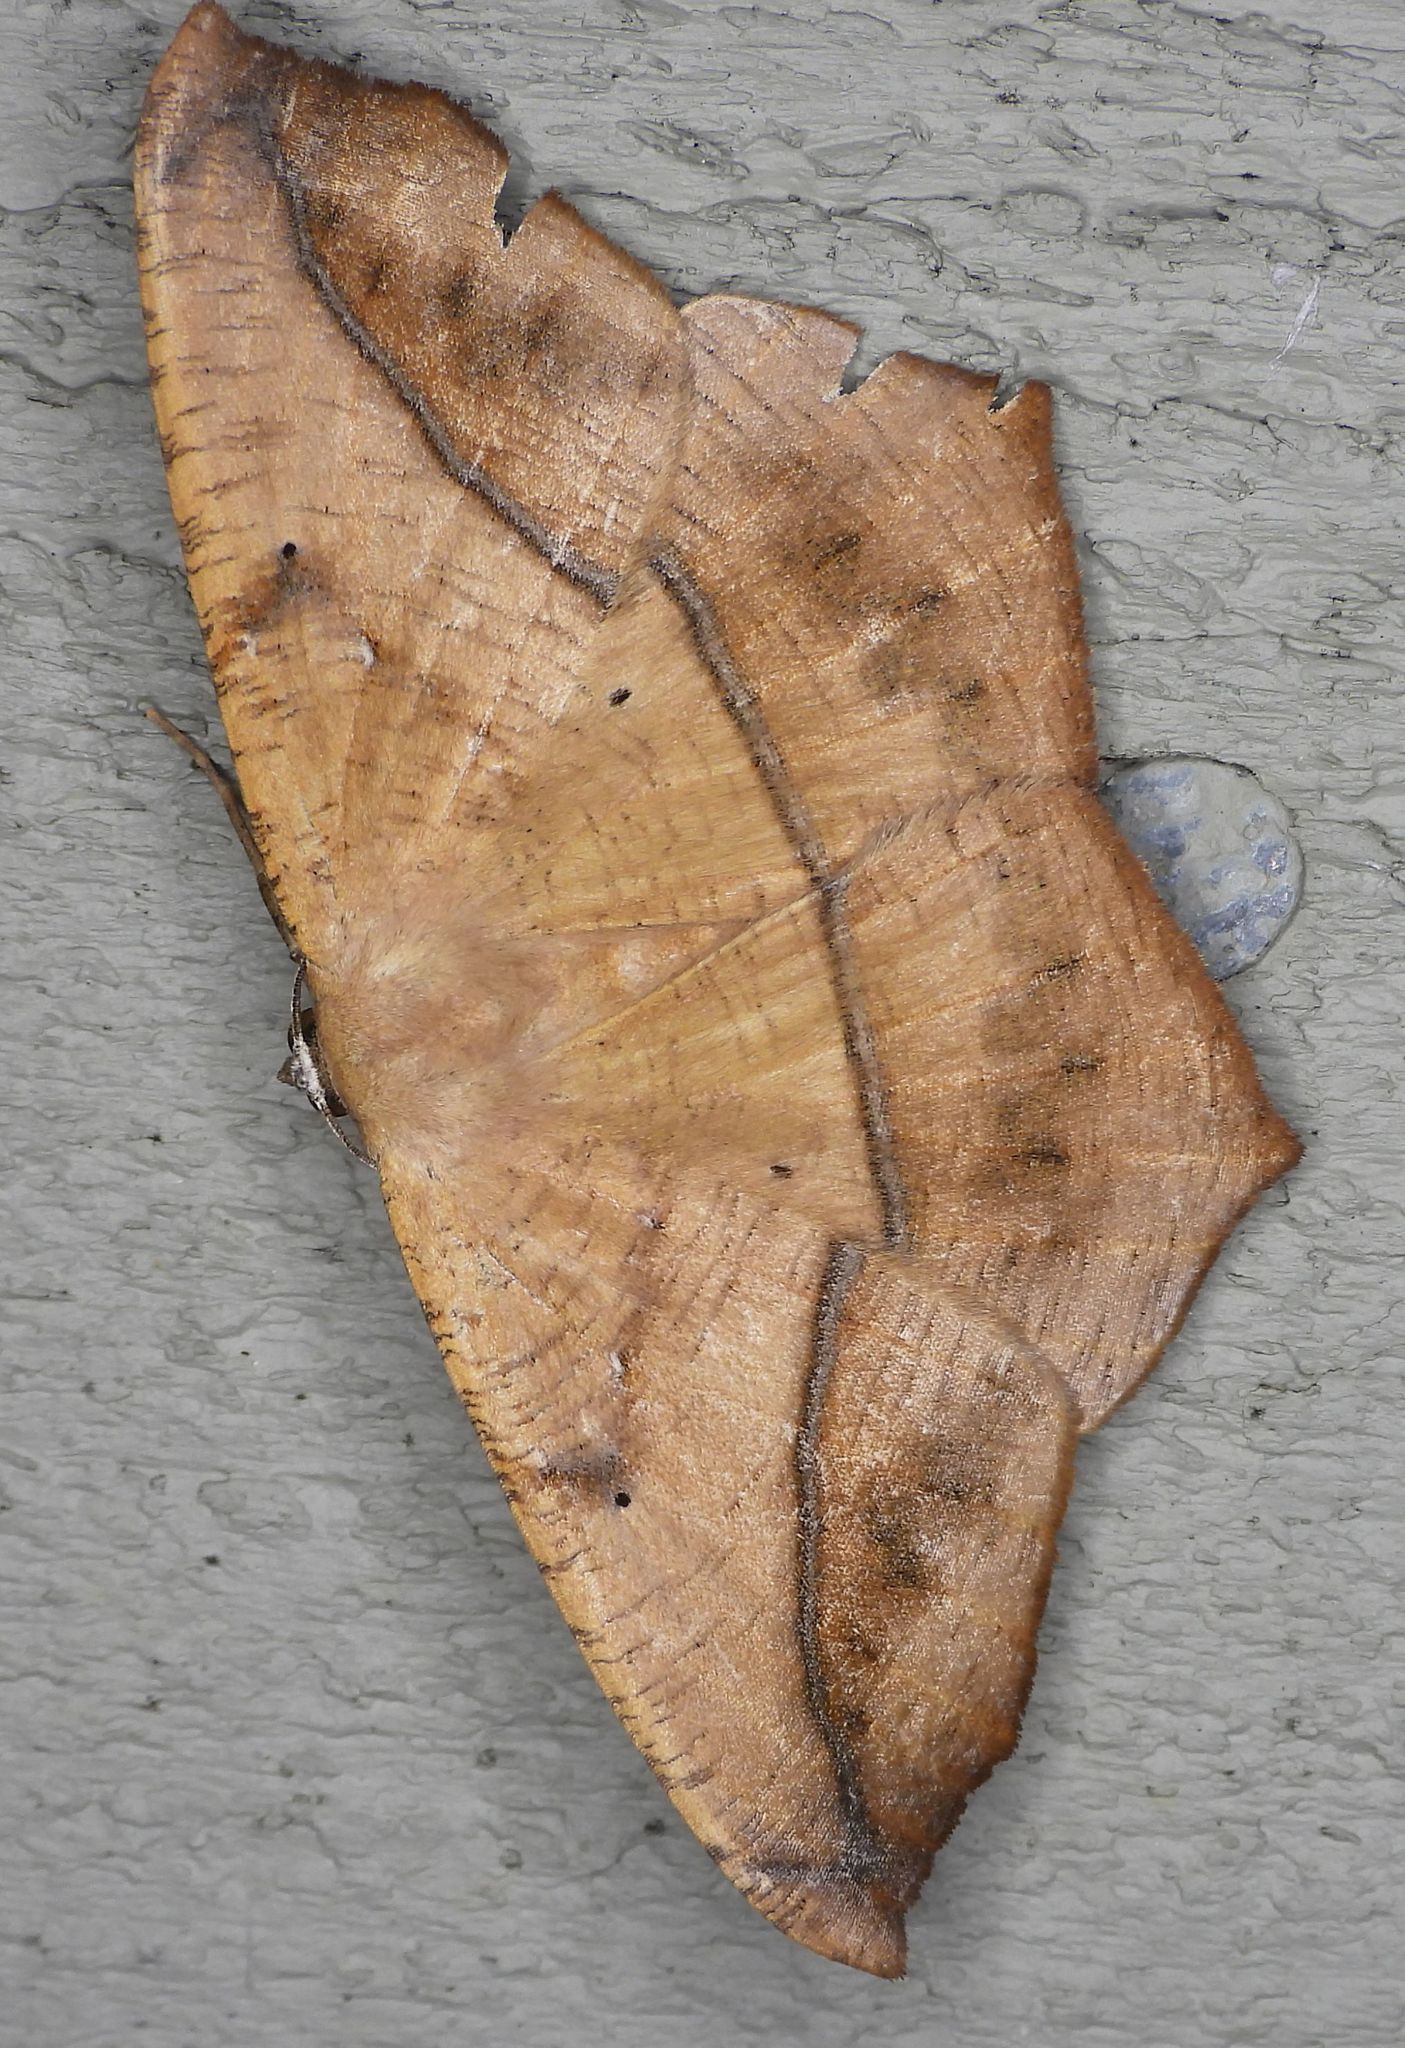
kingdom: Animalia
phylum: Arthropoda
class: Insecta
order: Lepidoptera
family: Geometridae
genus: Prochoerodes
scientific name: Prochoerodes lineola
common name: Large maple spanworm
